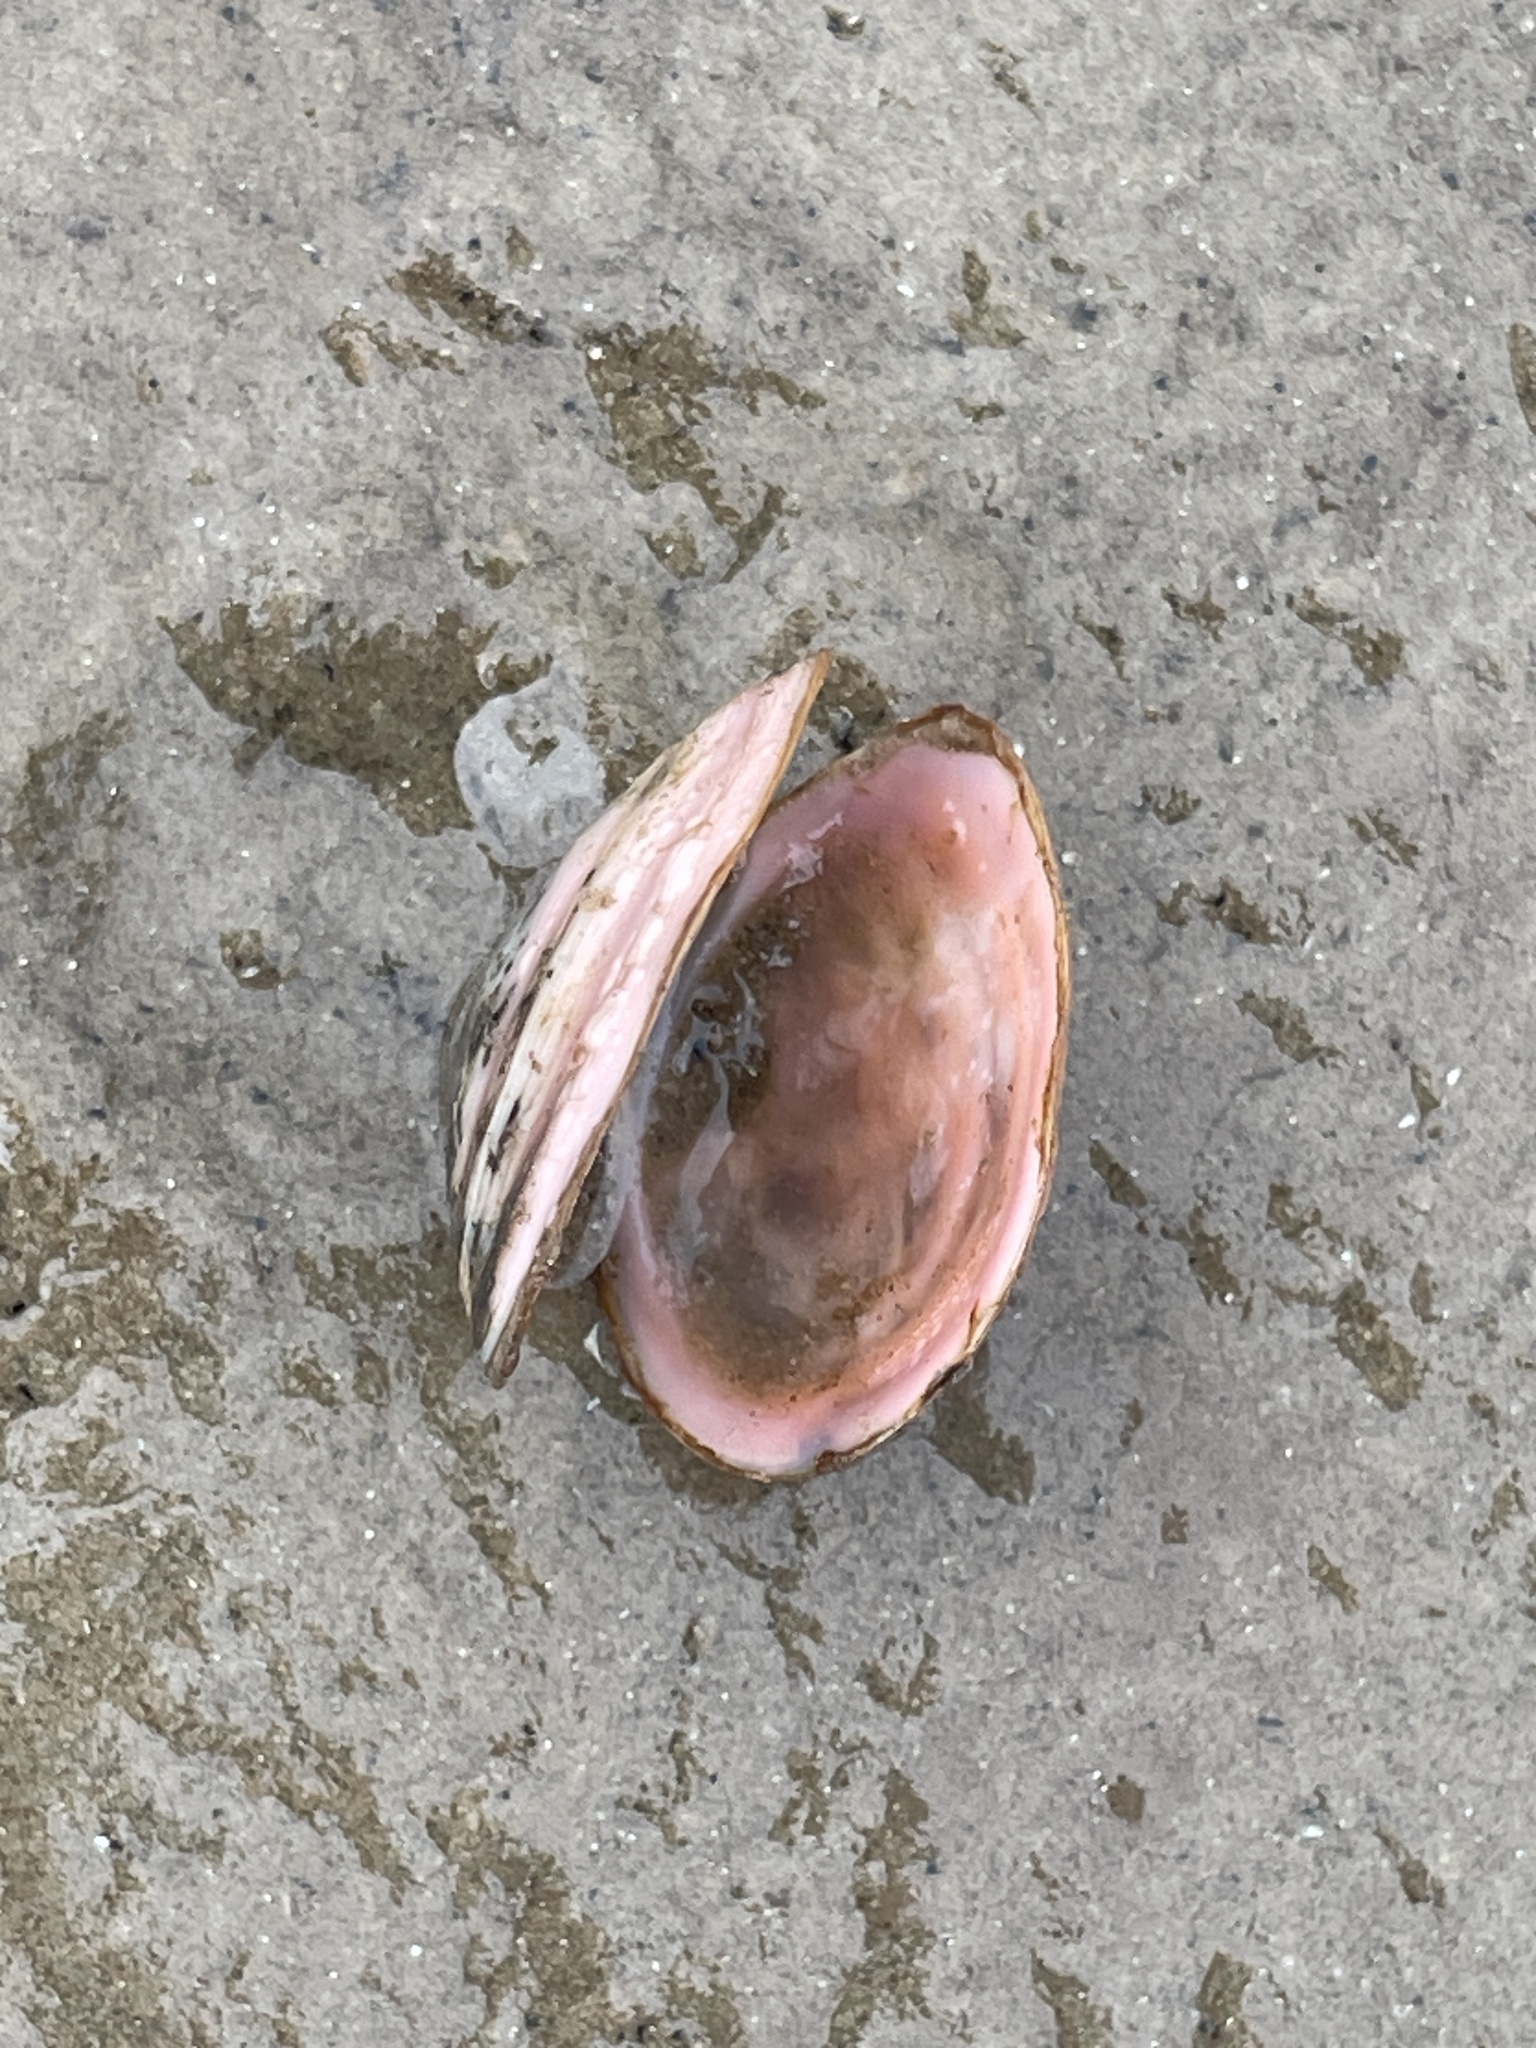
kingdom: Animalia
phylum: Mollusca
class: Bivalvia
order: Cardiida
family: Tellinidae
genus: Macoma
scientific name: Macoma balthica
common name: Baltic tellin
